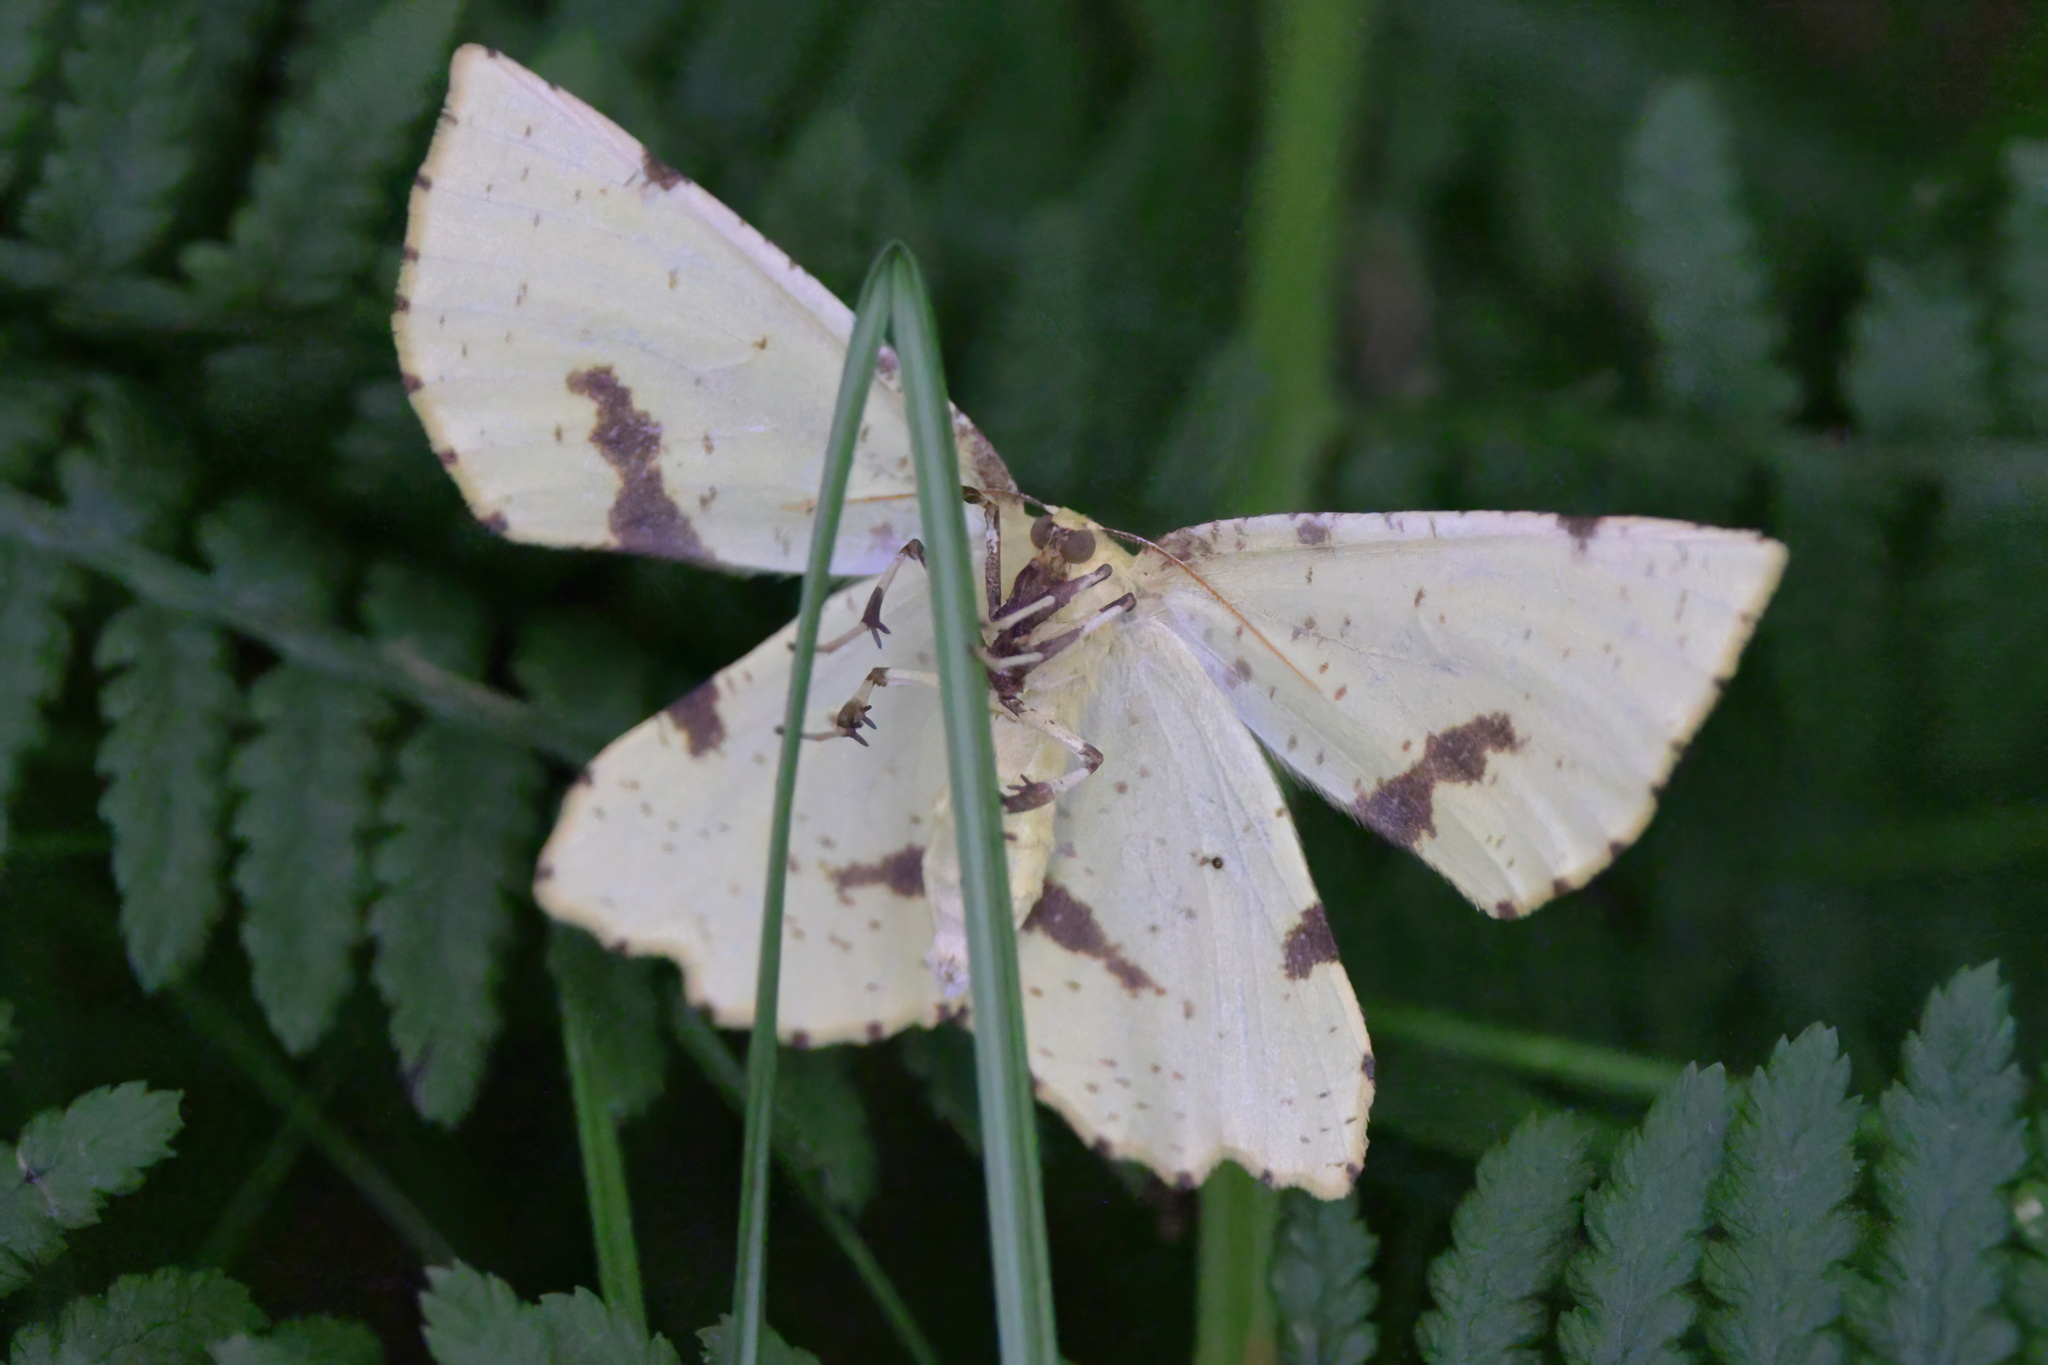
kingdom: Animalia
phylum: Arthropoda
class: Insecta
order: Lepidoptera
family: Geometridae
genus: Xanthotype
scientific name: Xanthotype
